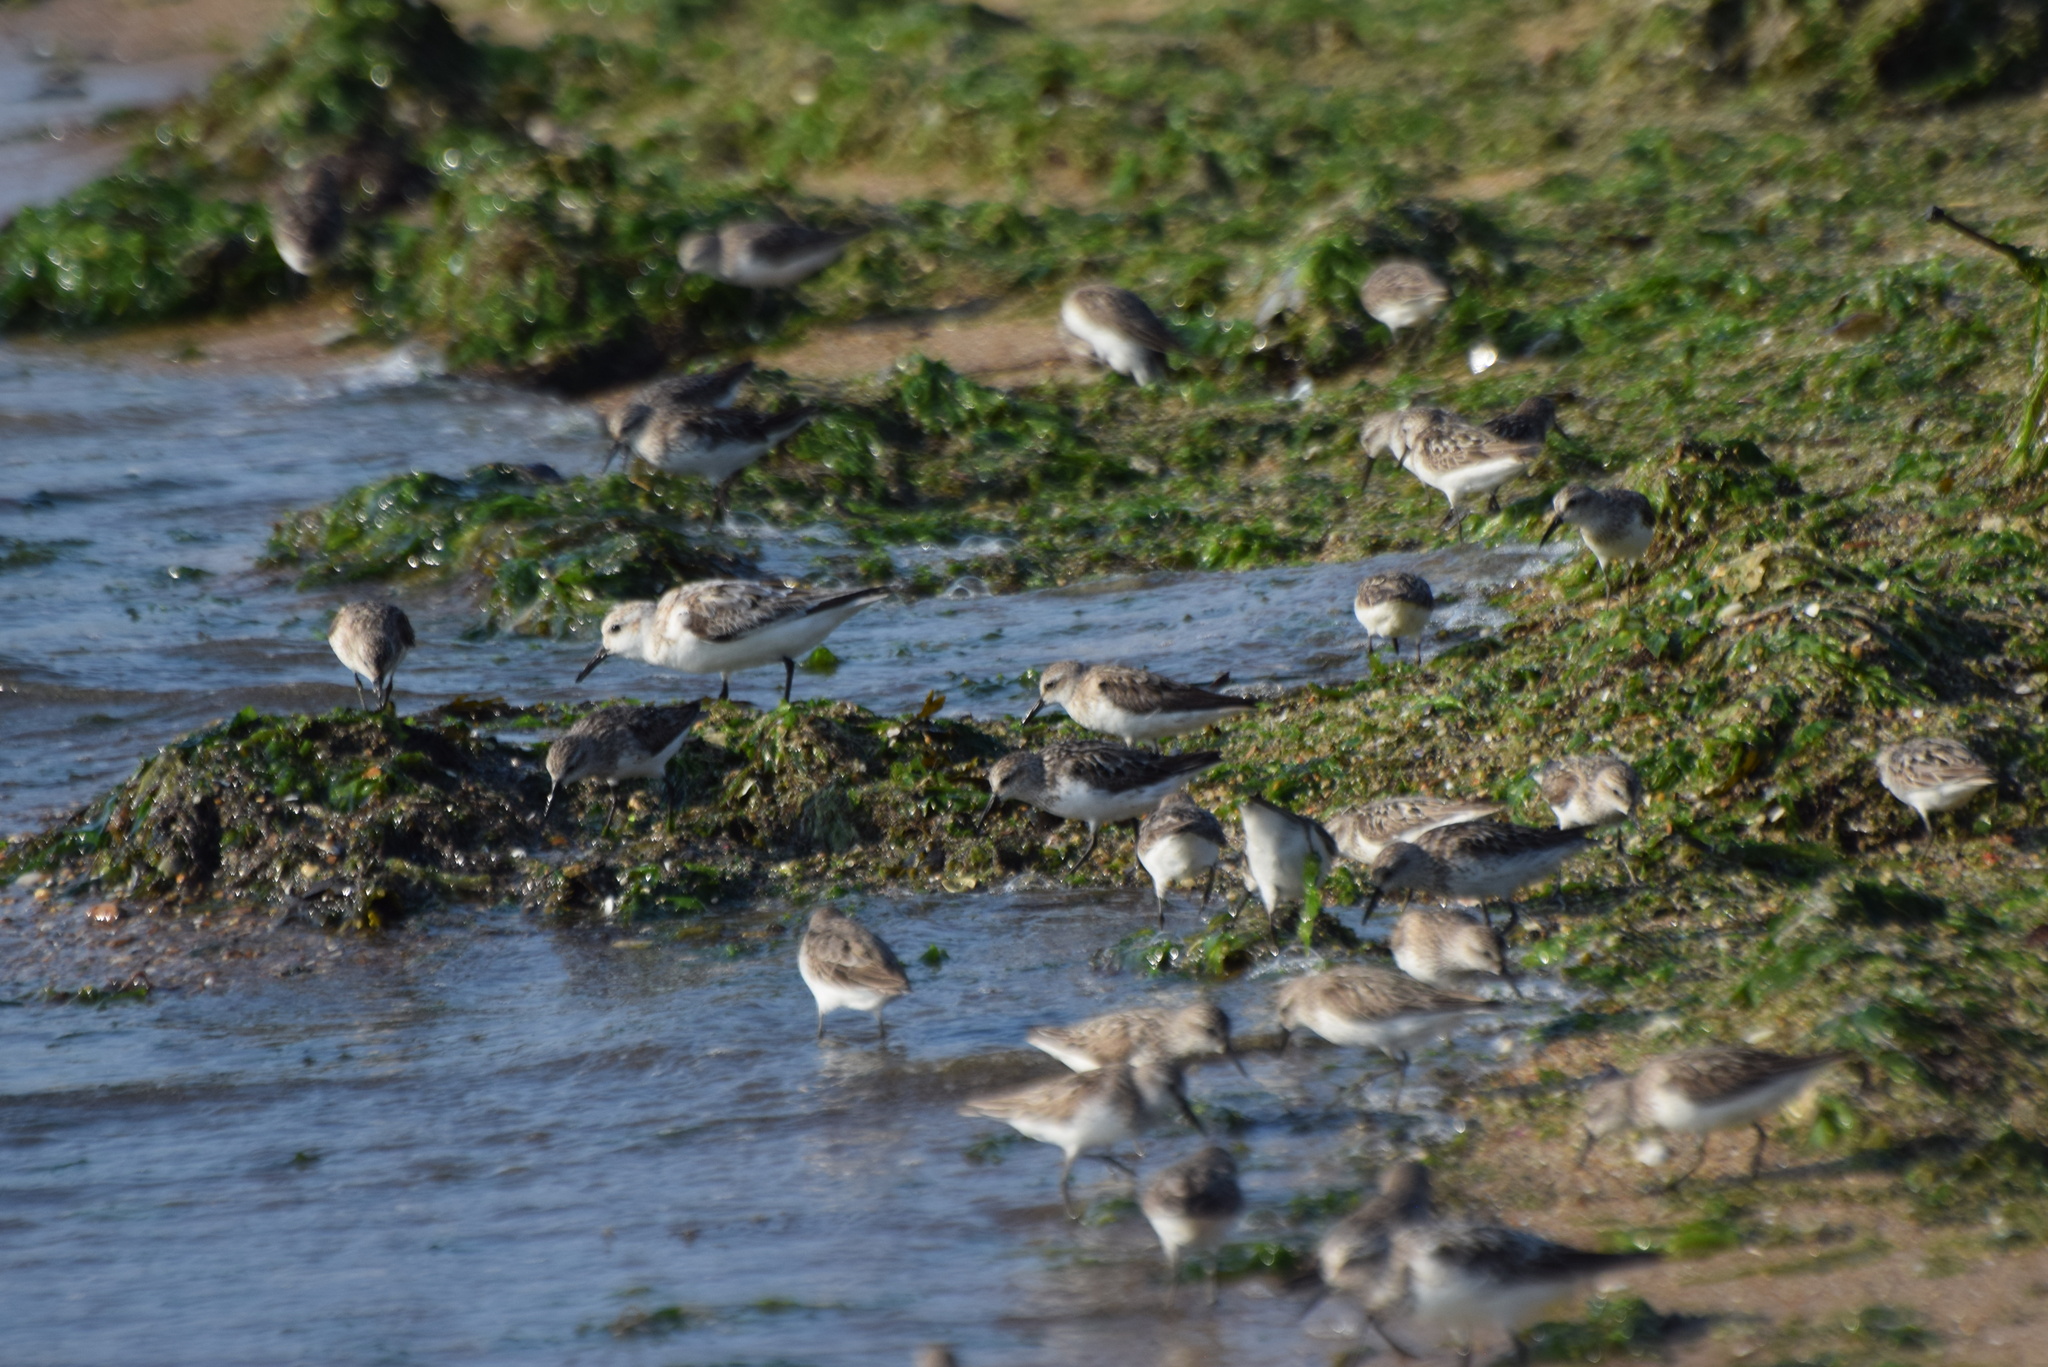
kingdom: Animalia
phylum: Chordata
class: Aves
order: Charadriiformes
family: Scolopacidae
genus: Calidris
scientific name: Calidris alba
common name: Sanderling
